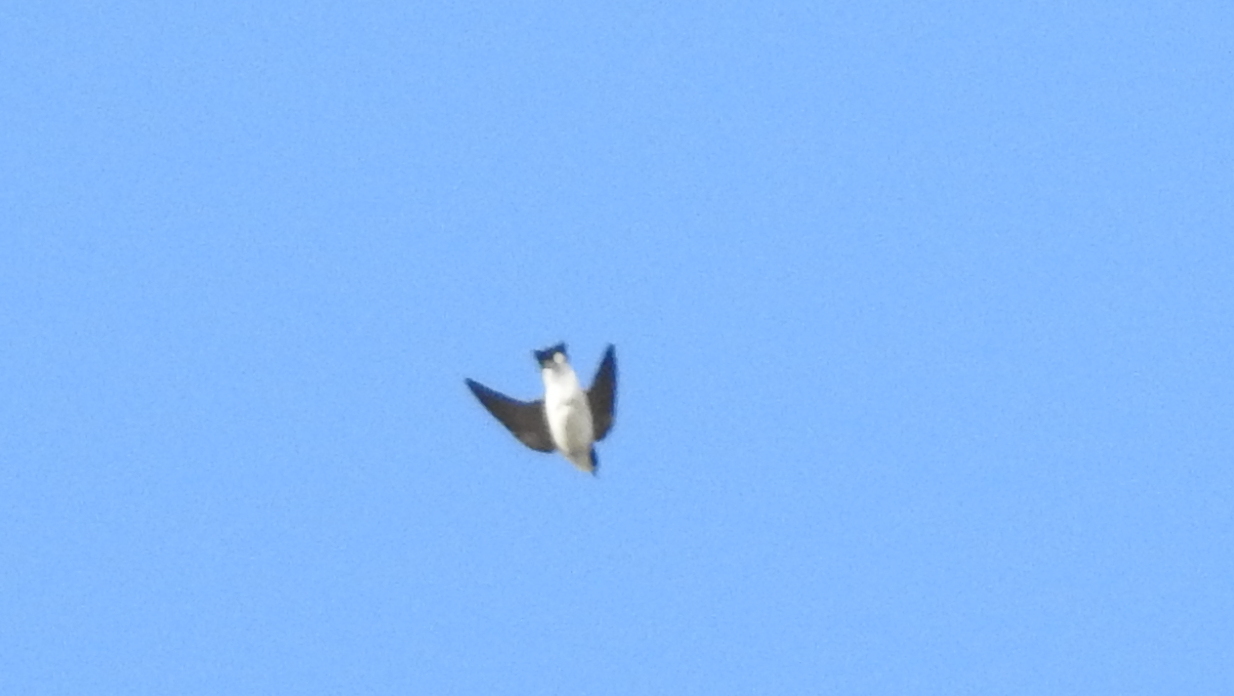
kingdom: Animalia
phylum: Chordata
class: Aves
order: Passeriformes
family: Hirundinidae
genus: Tachycineta
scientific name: Tachycineta leucopyga
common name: Chilean swallow
